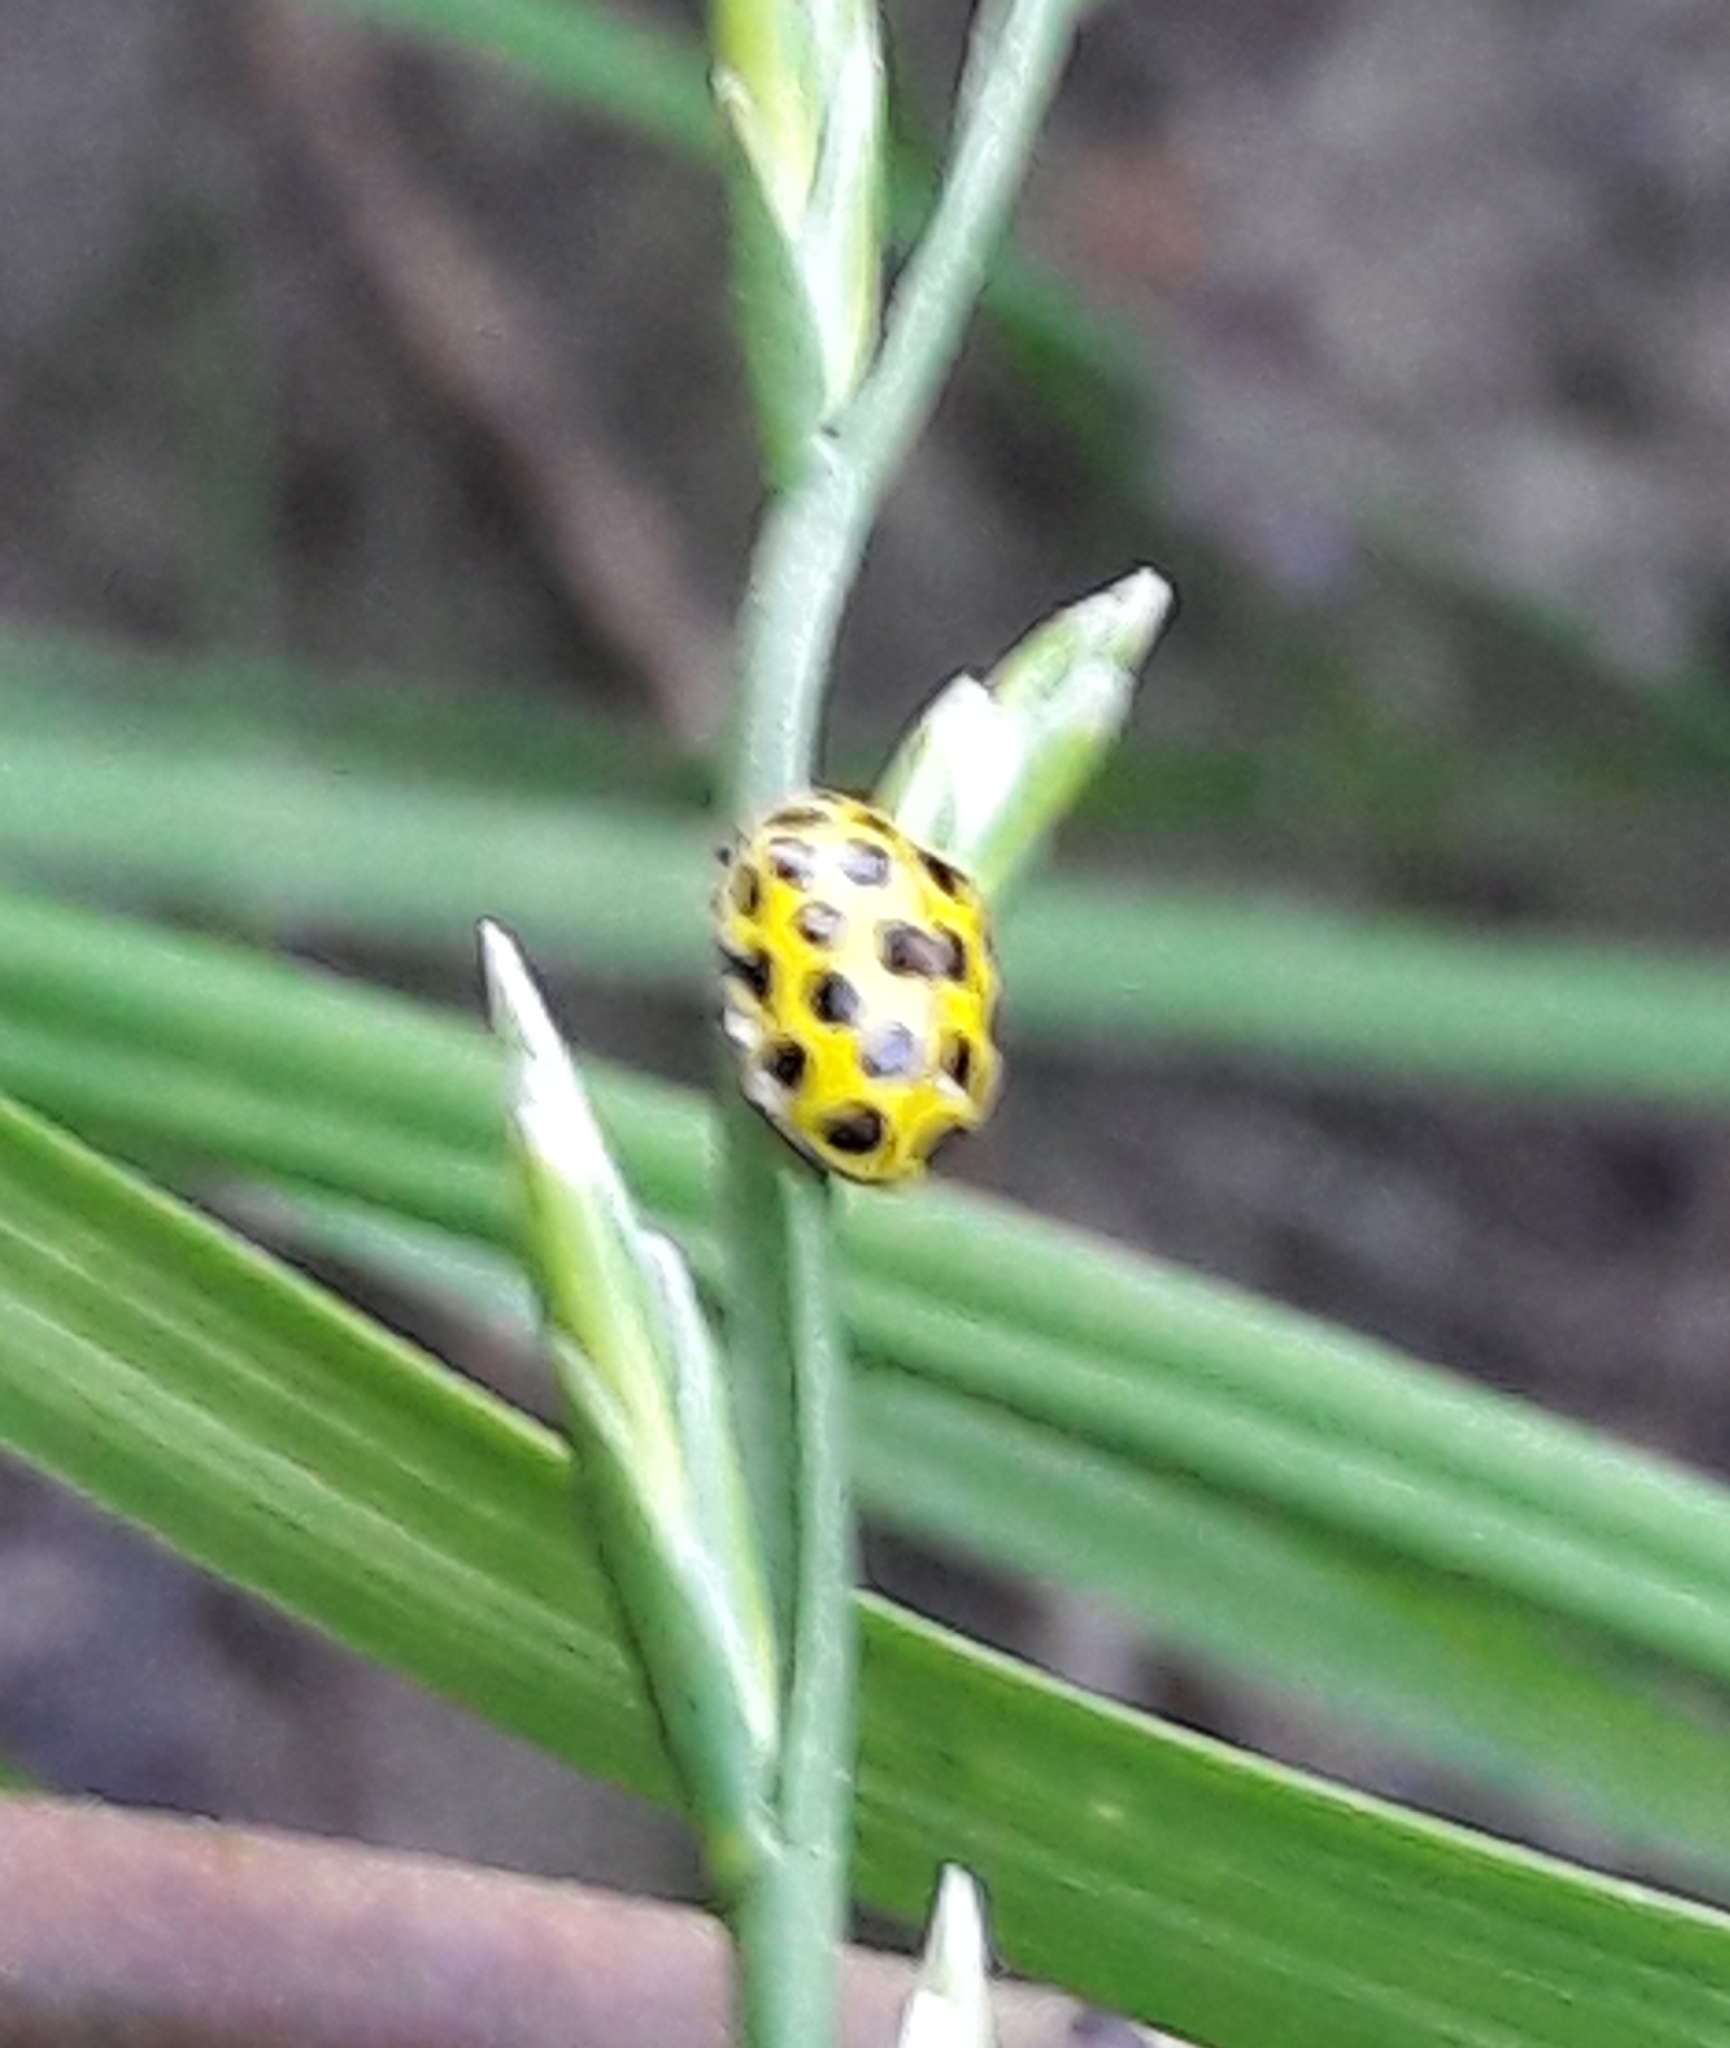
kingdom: Animalia
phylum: Arthropoda
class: Insecta
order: Coleoptera
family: Coccinellidae
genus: Psyllobora
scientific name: Psyllobora vigintiduopunctata
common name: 22-spot ladybird
